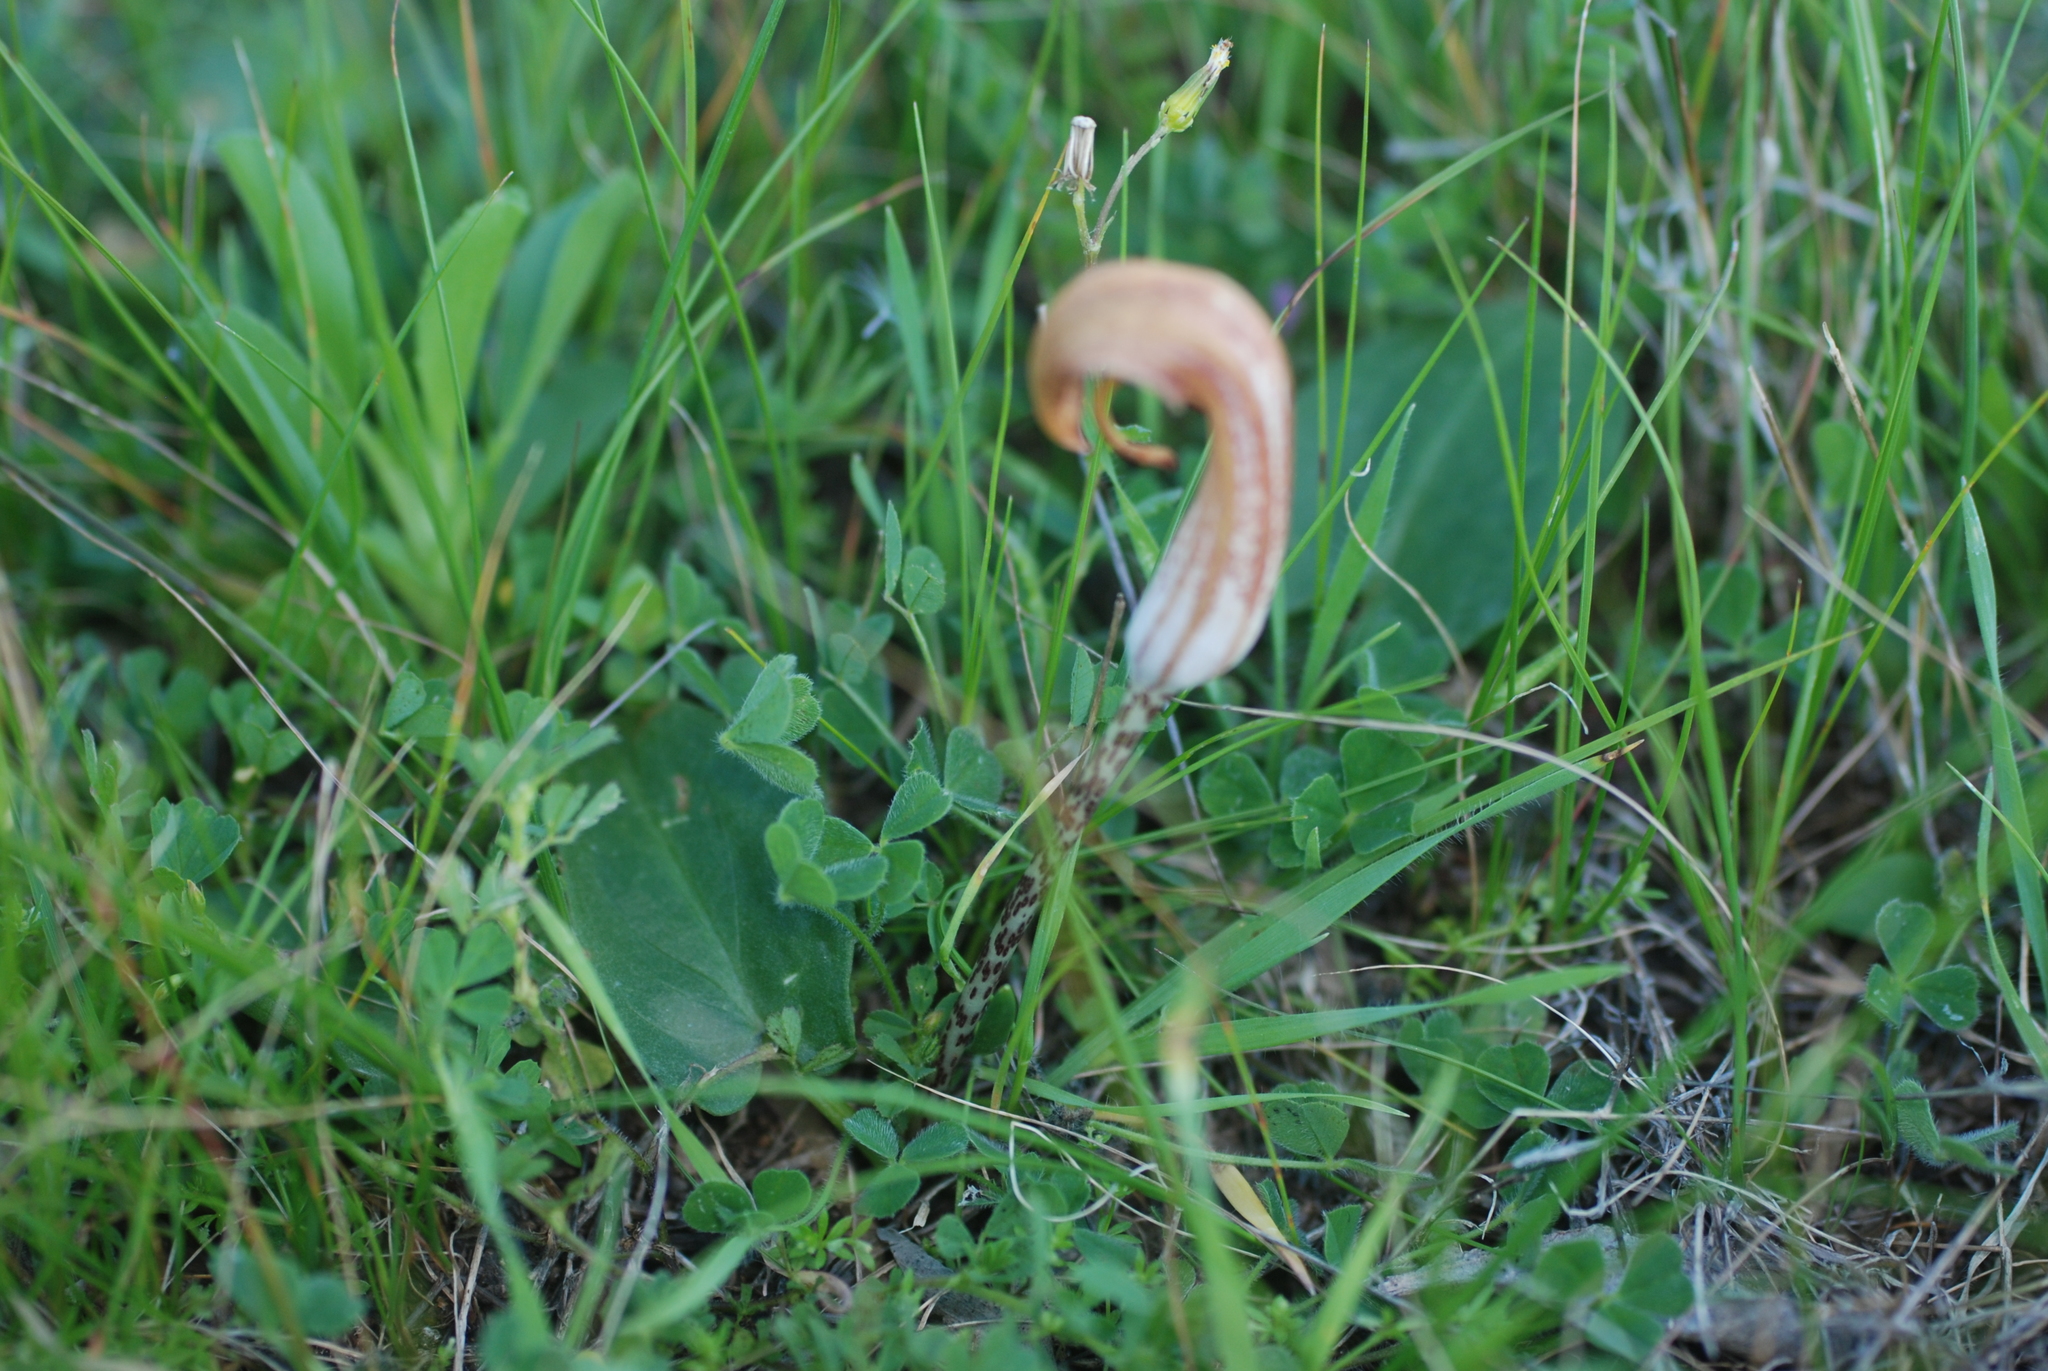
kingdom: Plantae
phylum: Tracheophyta
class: Liliopsida
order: Alismatales
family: Araceae
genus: Arisarum
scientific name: Arisarum vulgare
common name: Common arisarum
